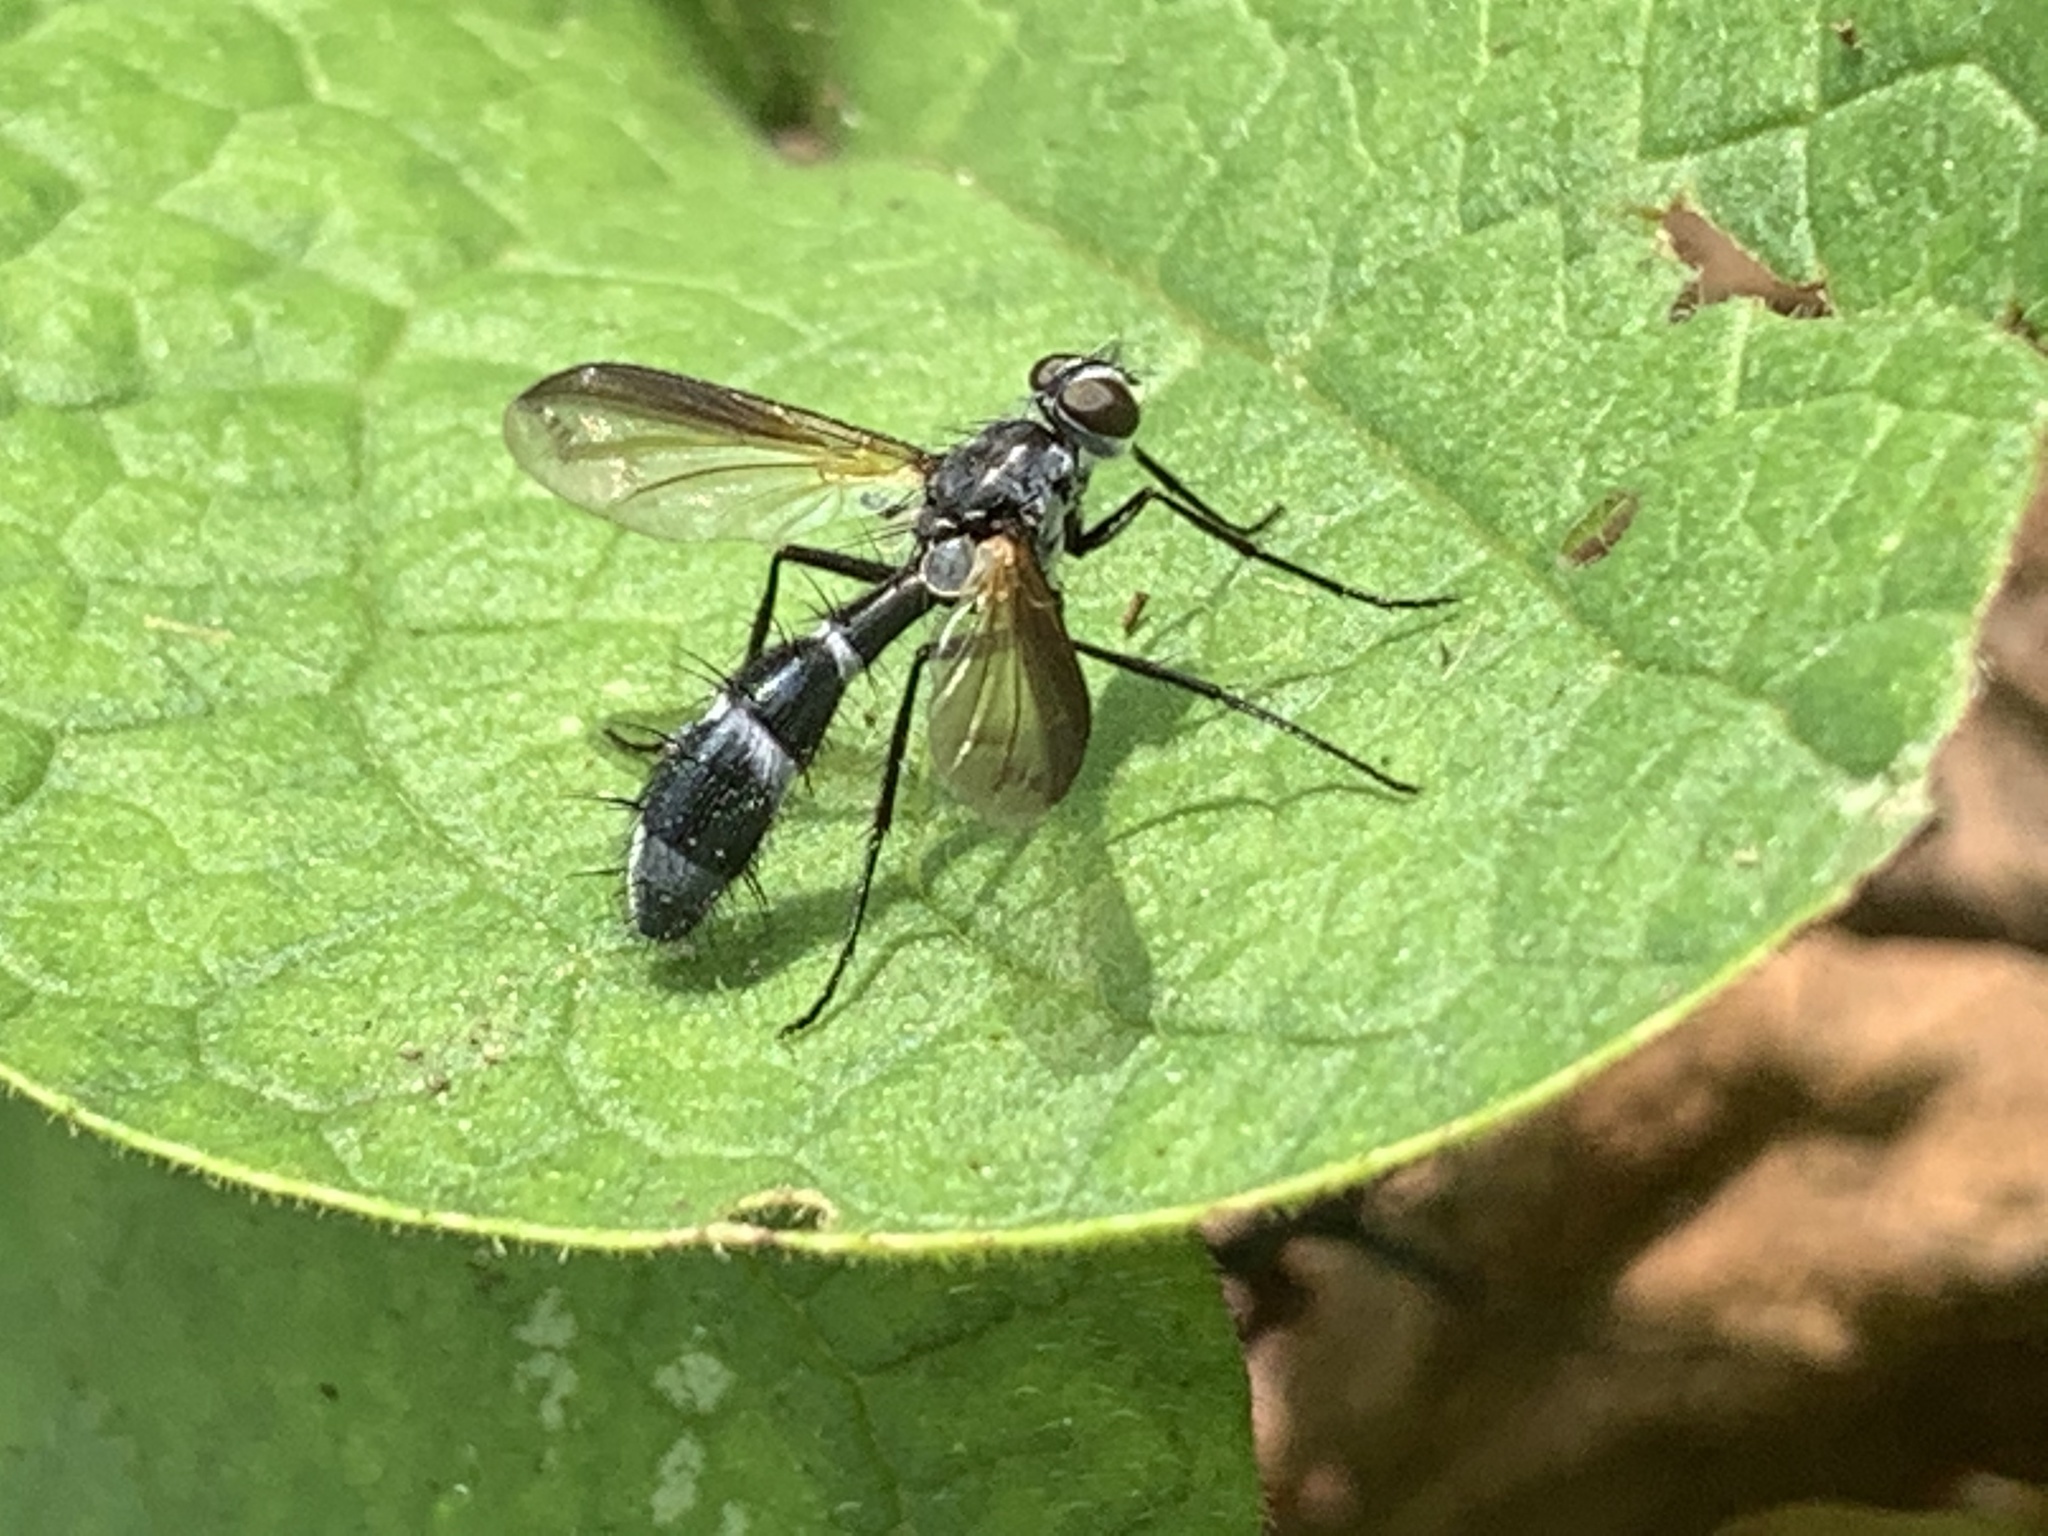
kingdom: Animalia
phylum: Arthropoda
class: Insecta
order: Diptera
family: Tachinidae
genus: Cordyligaster
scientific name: Cordyligaster septentrionalis
